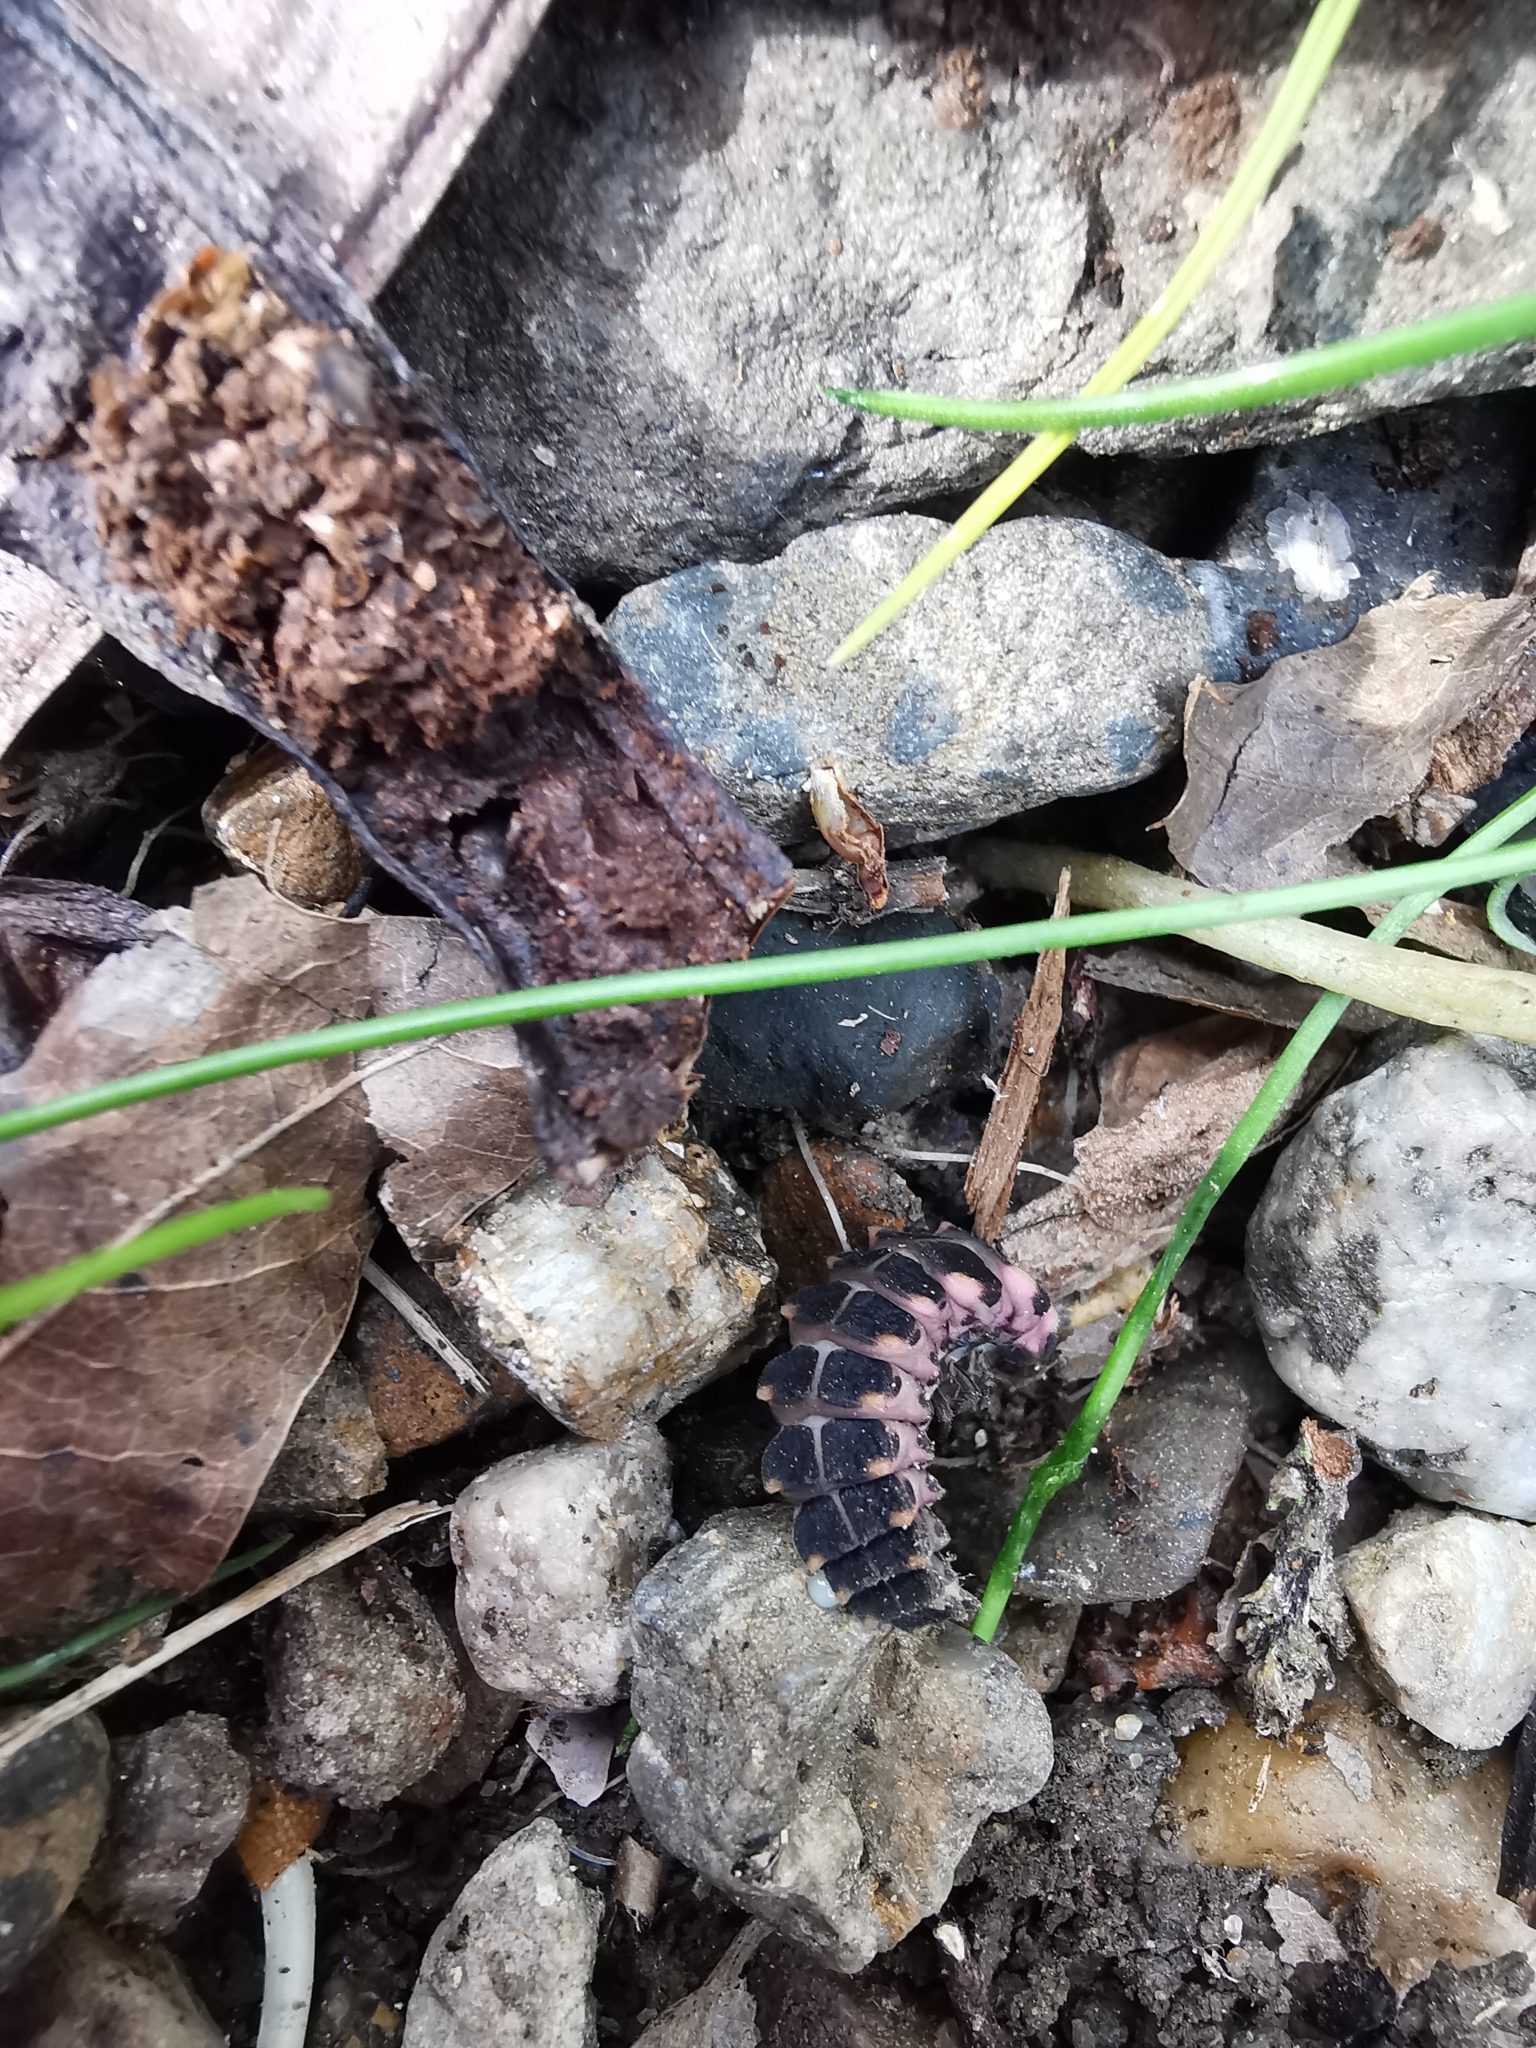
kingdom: Animalia
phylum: Arthropoda
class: Insecta
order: Coleoptera
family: Lampyridae
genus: Lampyris
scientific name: Lampyris noctiluca
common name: Glow-worm
